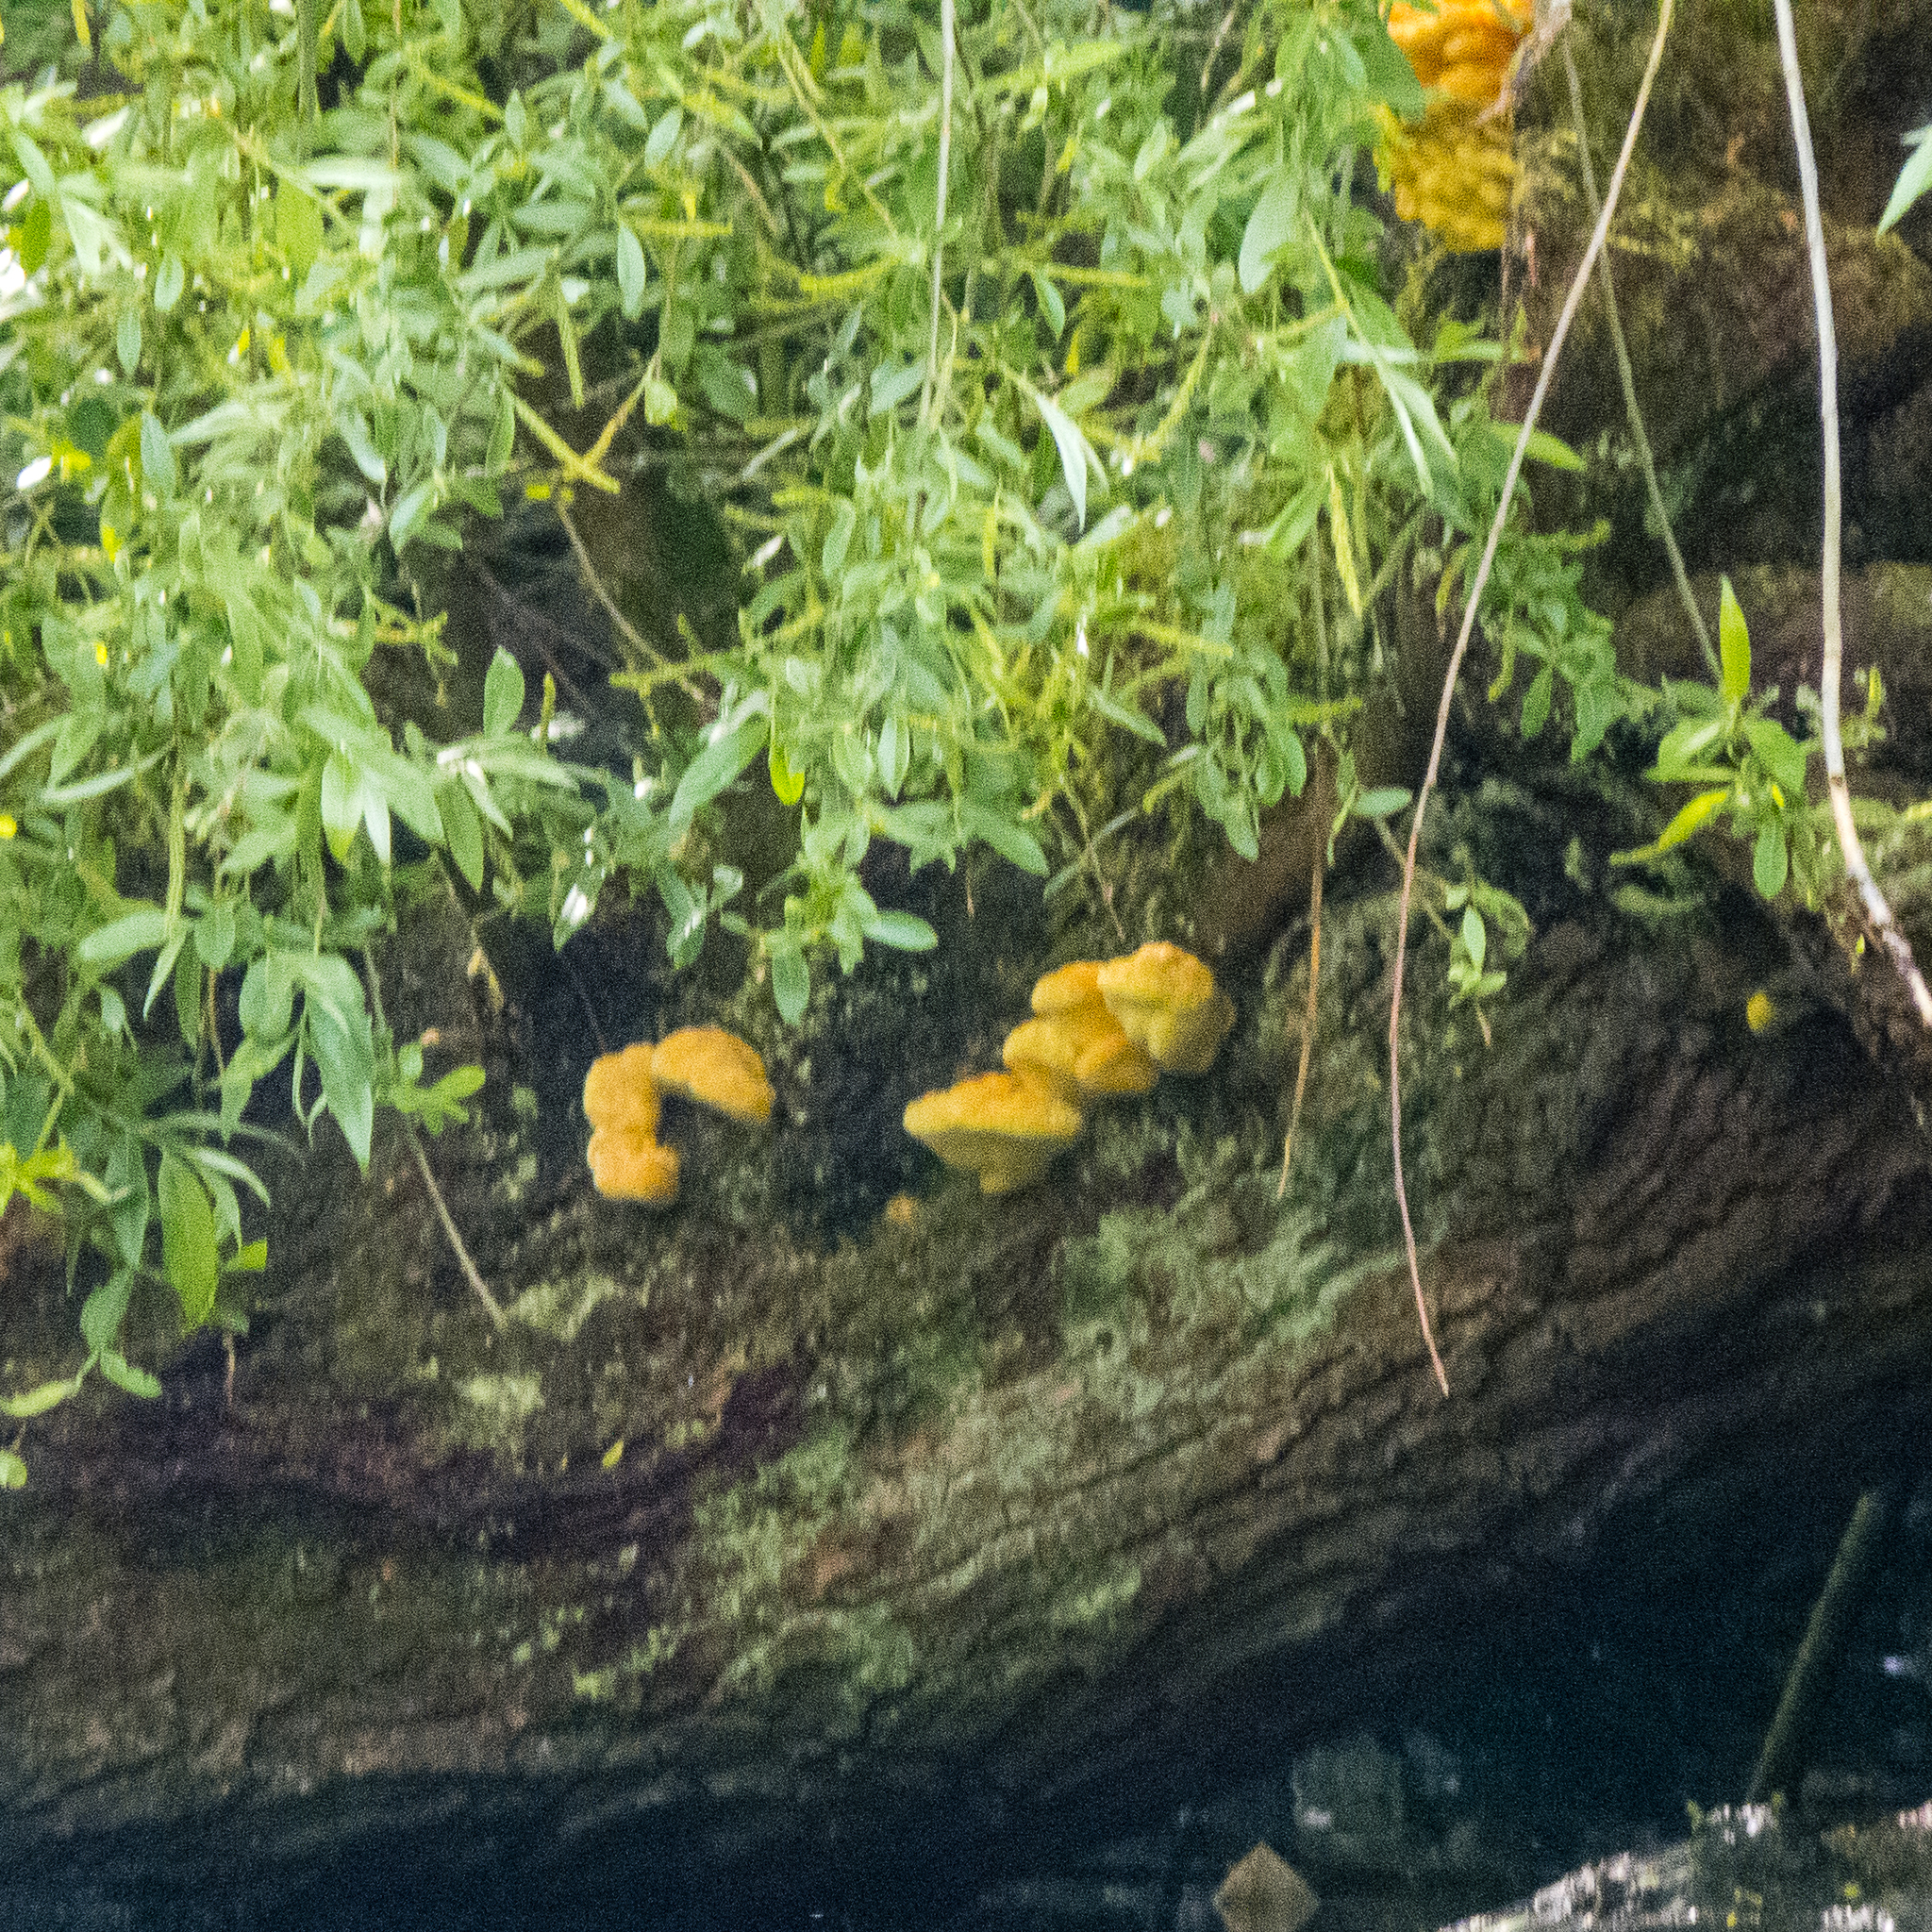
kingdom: Fungi
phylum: Basidiomycota
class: Agaricomycetes
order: Polyporales
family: Laetiporaceae
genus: Laetiporus
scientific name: Laetiporus sulphureus
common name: Chicken of the woods
